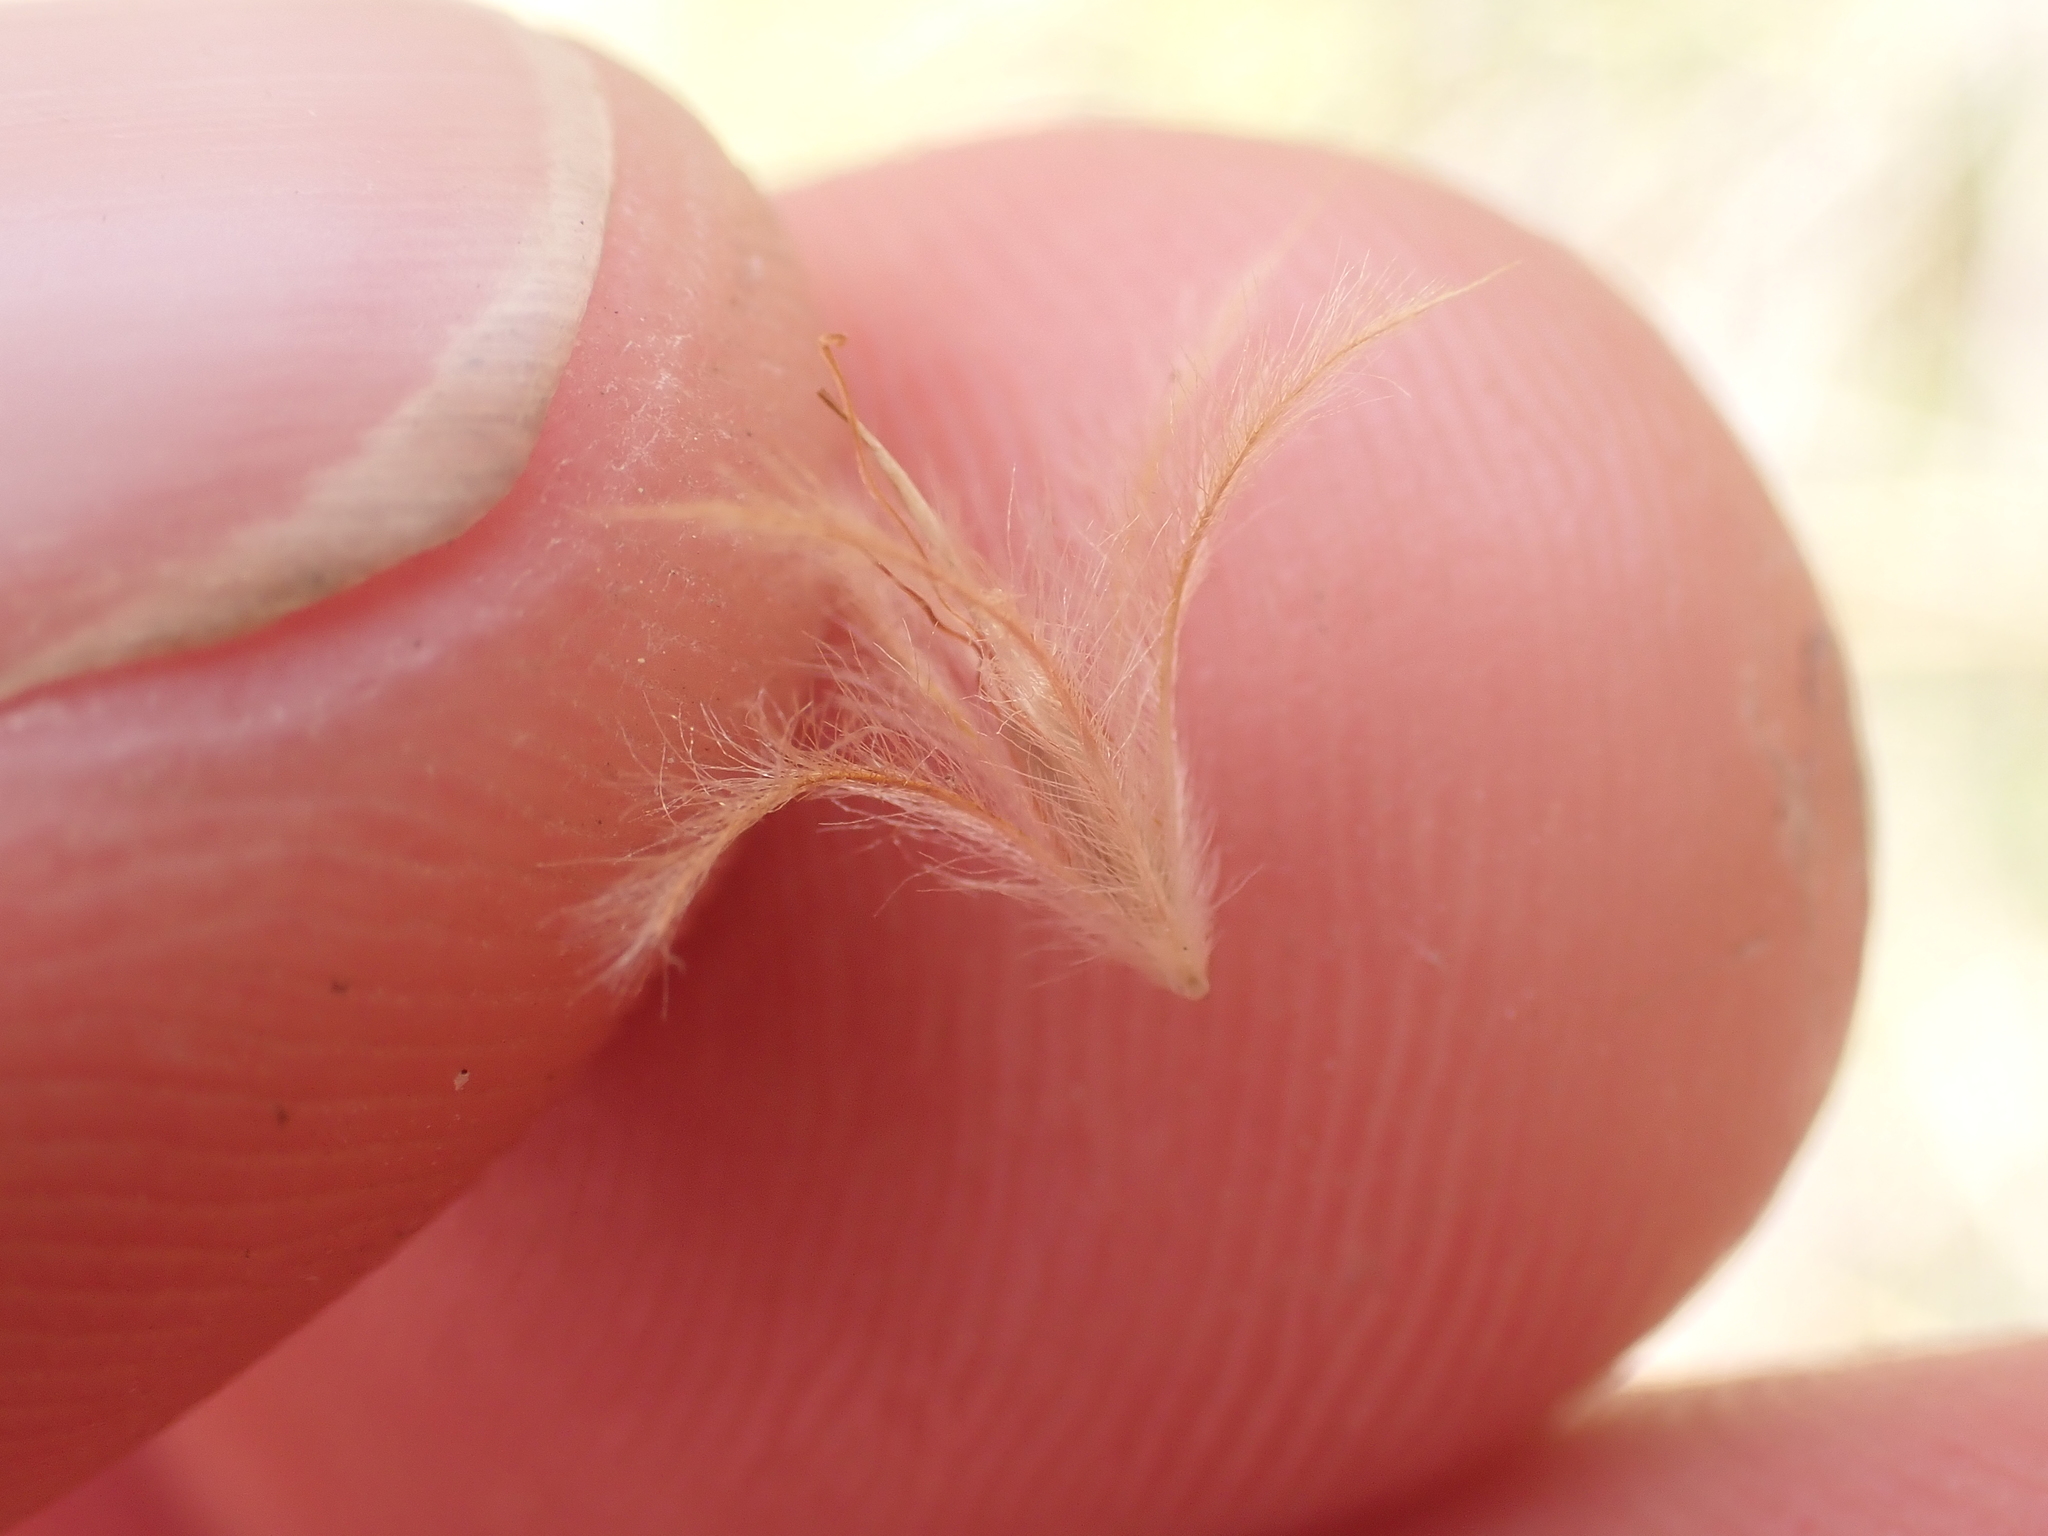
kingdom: Plantae
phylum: Tracheophyta
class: Liliopsida
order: Poales
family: Cyperaceae
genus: Carpha
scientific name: Carpha alpina
